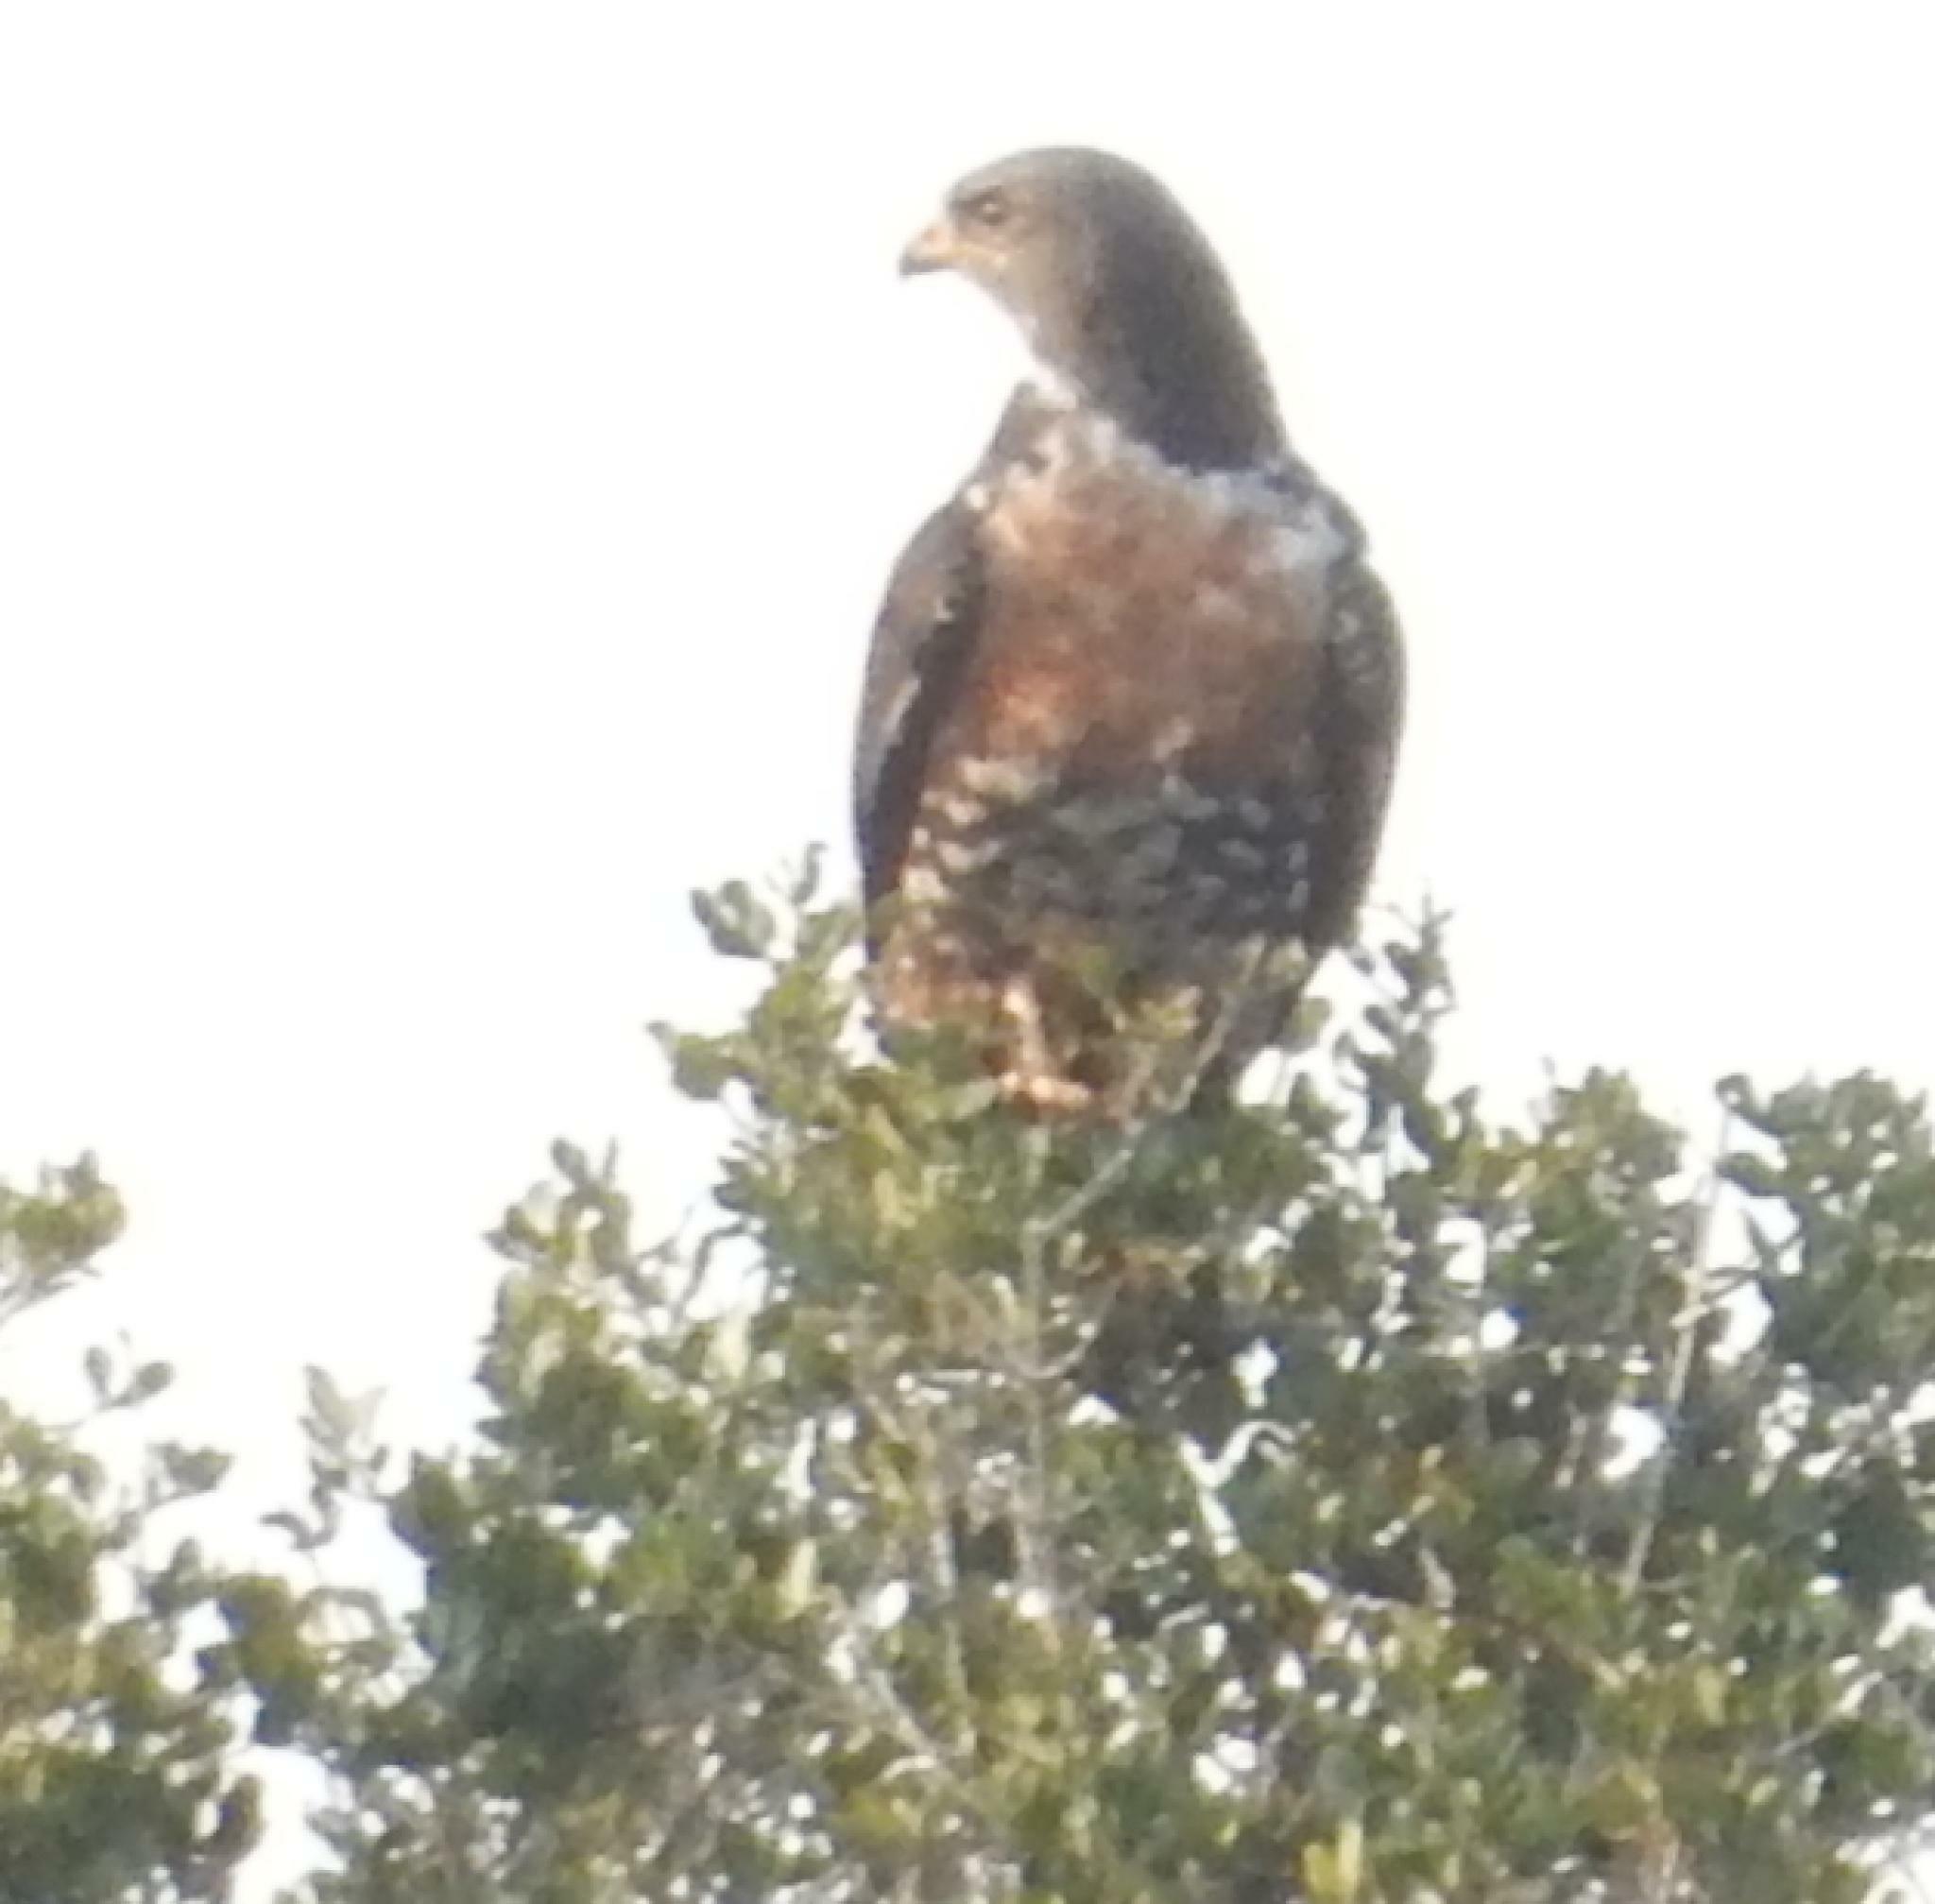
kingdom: Animalia
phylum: Chordata
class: Aves
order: Accipitriformes
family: Accipitridae
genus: Buteo
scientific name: Buteo rufofuscus
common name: Jackal buzzard
